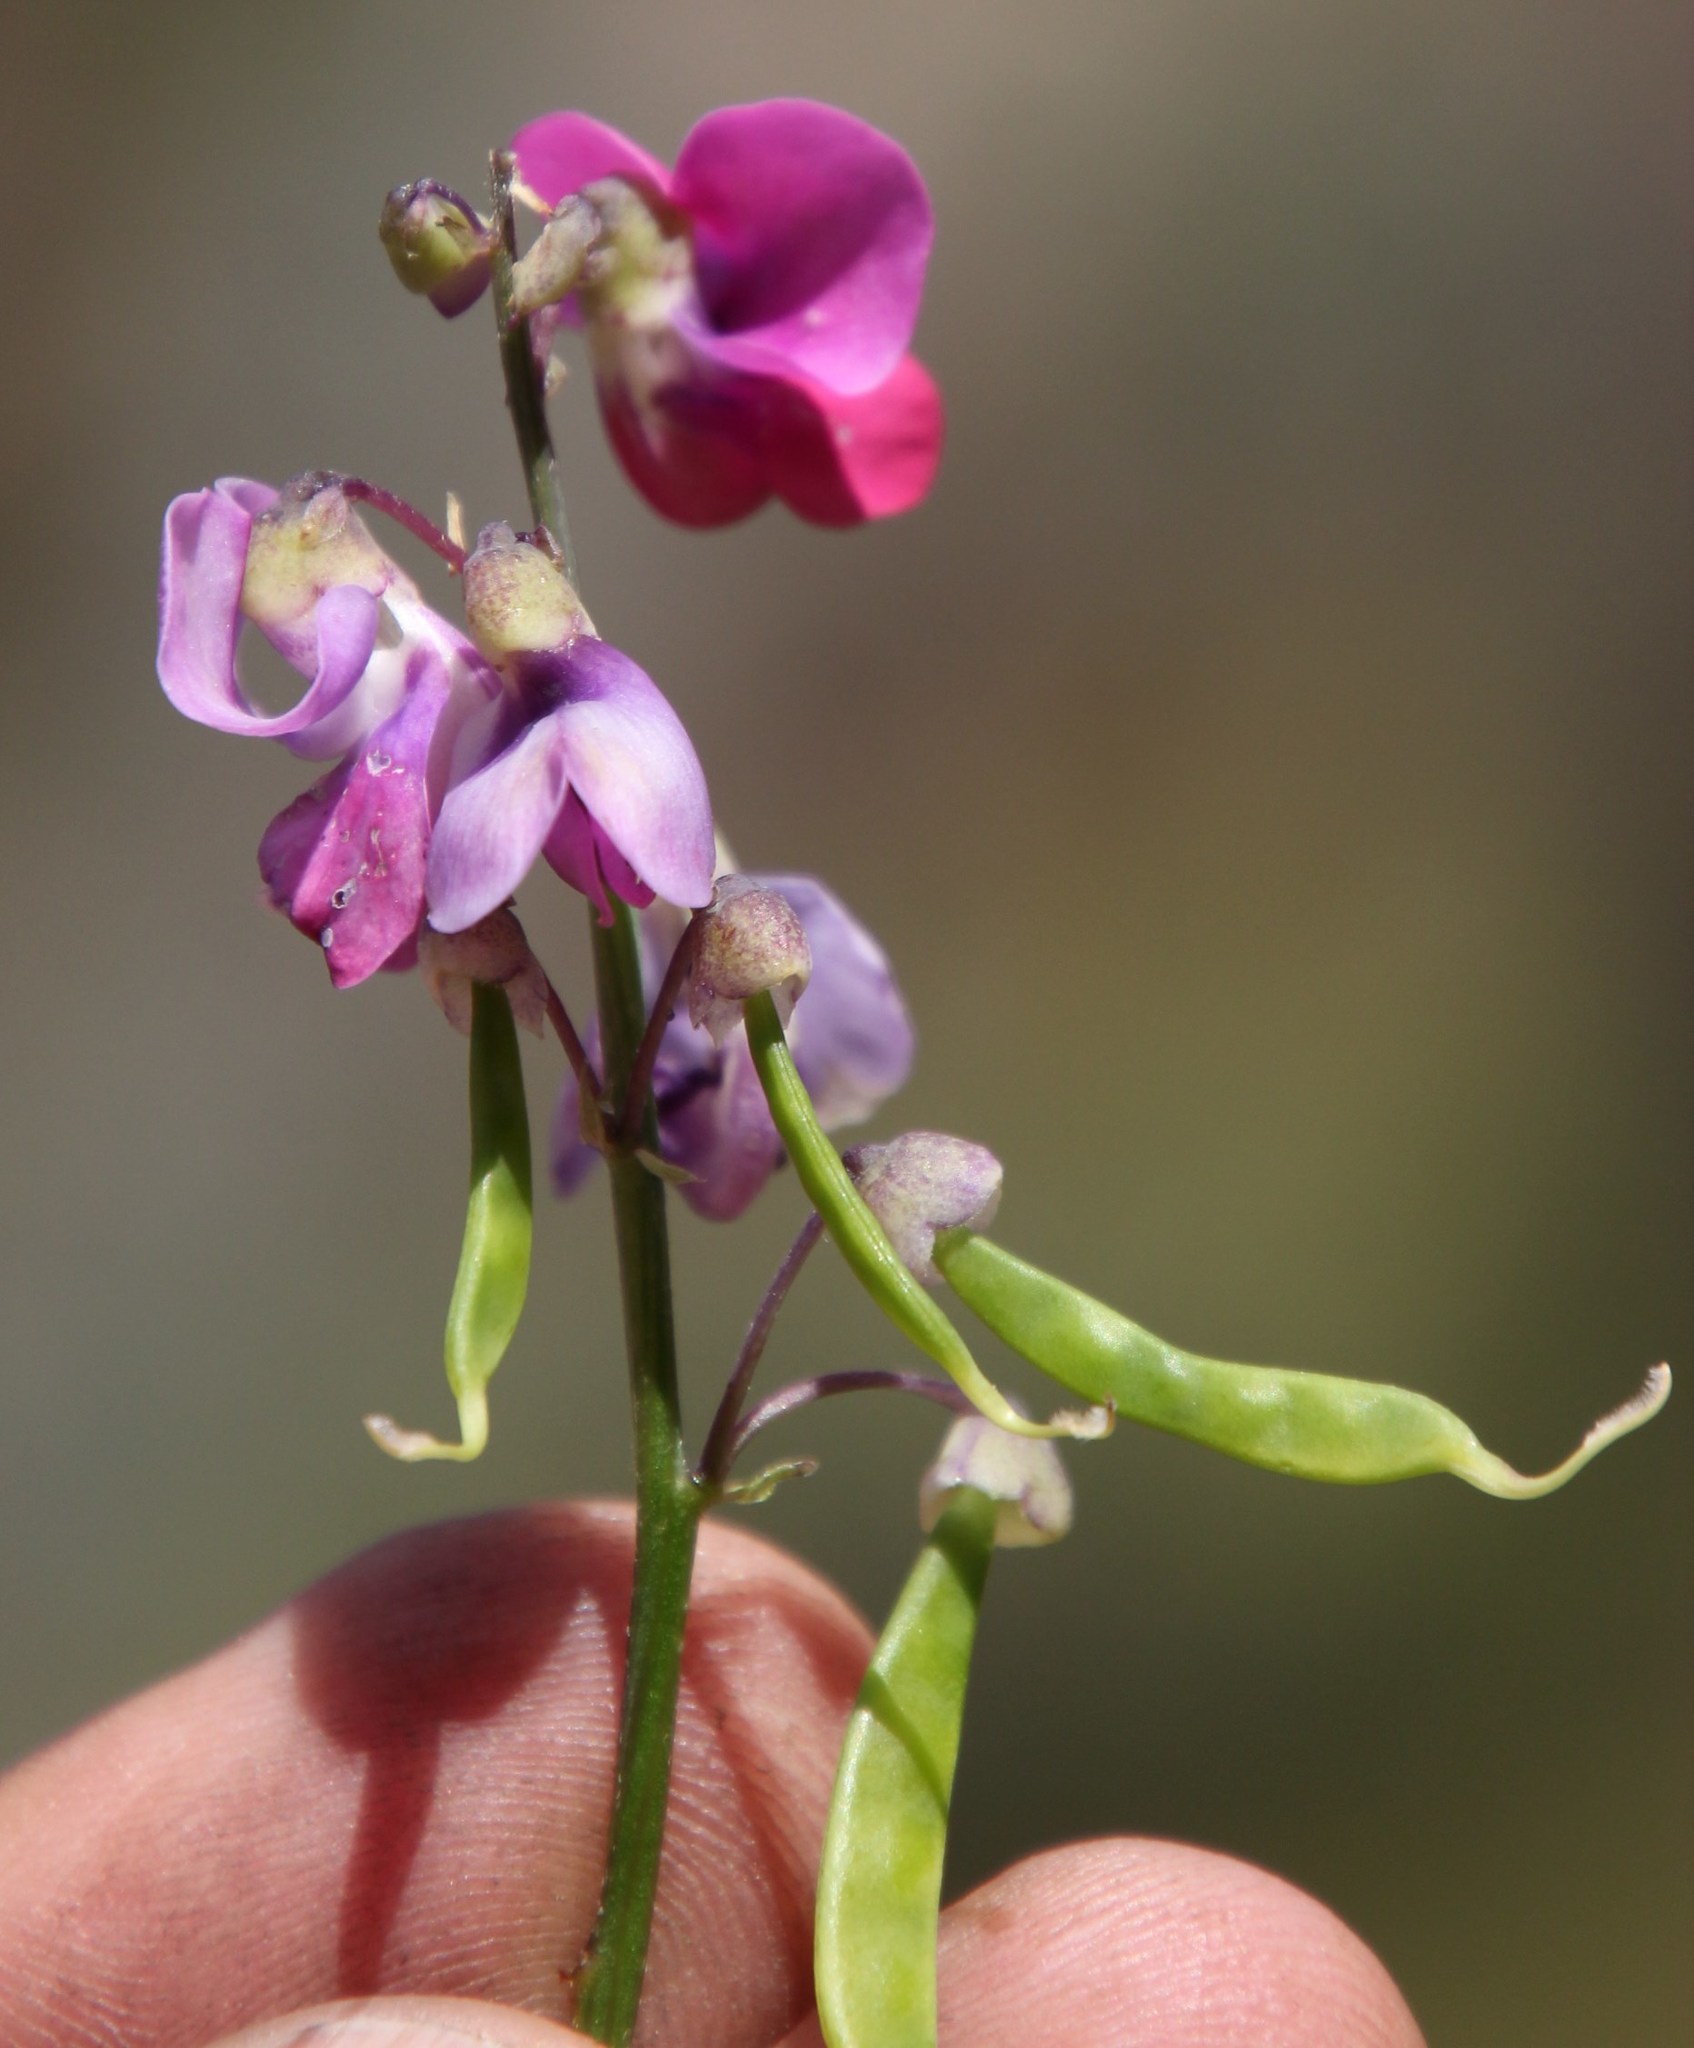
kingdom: Plantae
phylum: Tracheophyta
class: Magnoliopsida
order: Fabales
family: Fabaceae
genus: Dipogon
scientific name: Dipogon lignosus
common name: Okie bean
